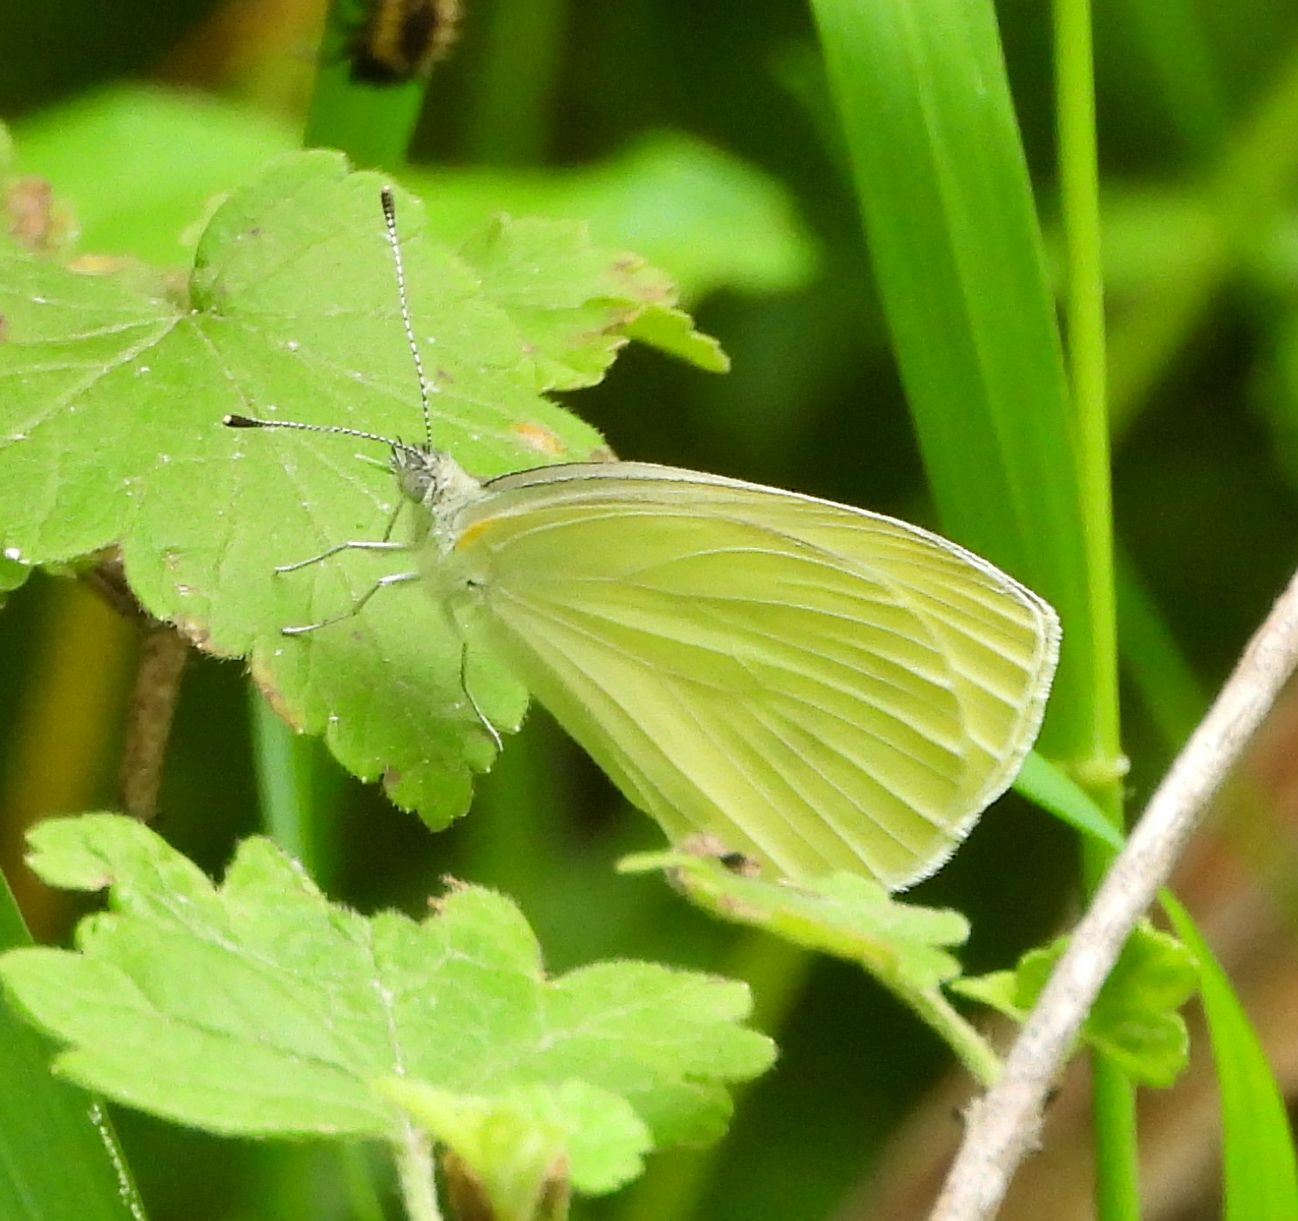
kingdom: Animalia
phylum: Arthropoda
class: Insecta
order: Lepidoptera
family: Pieridae
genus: Pieris
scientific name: Pieris oleracea
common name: Mustard white
